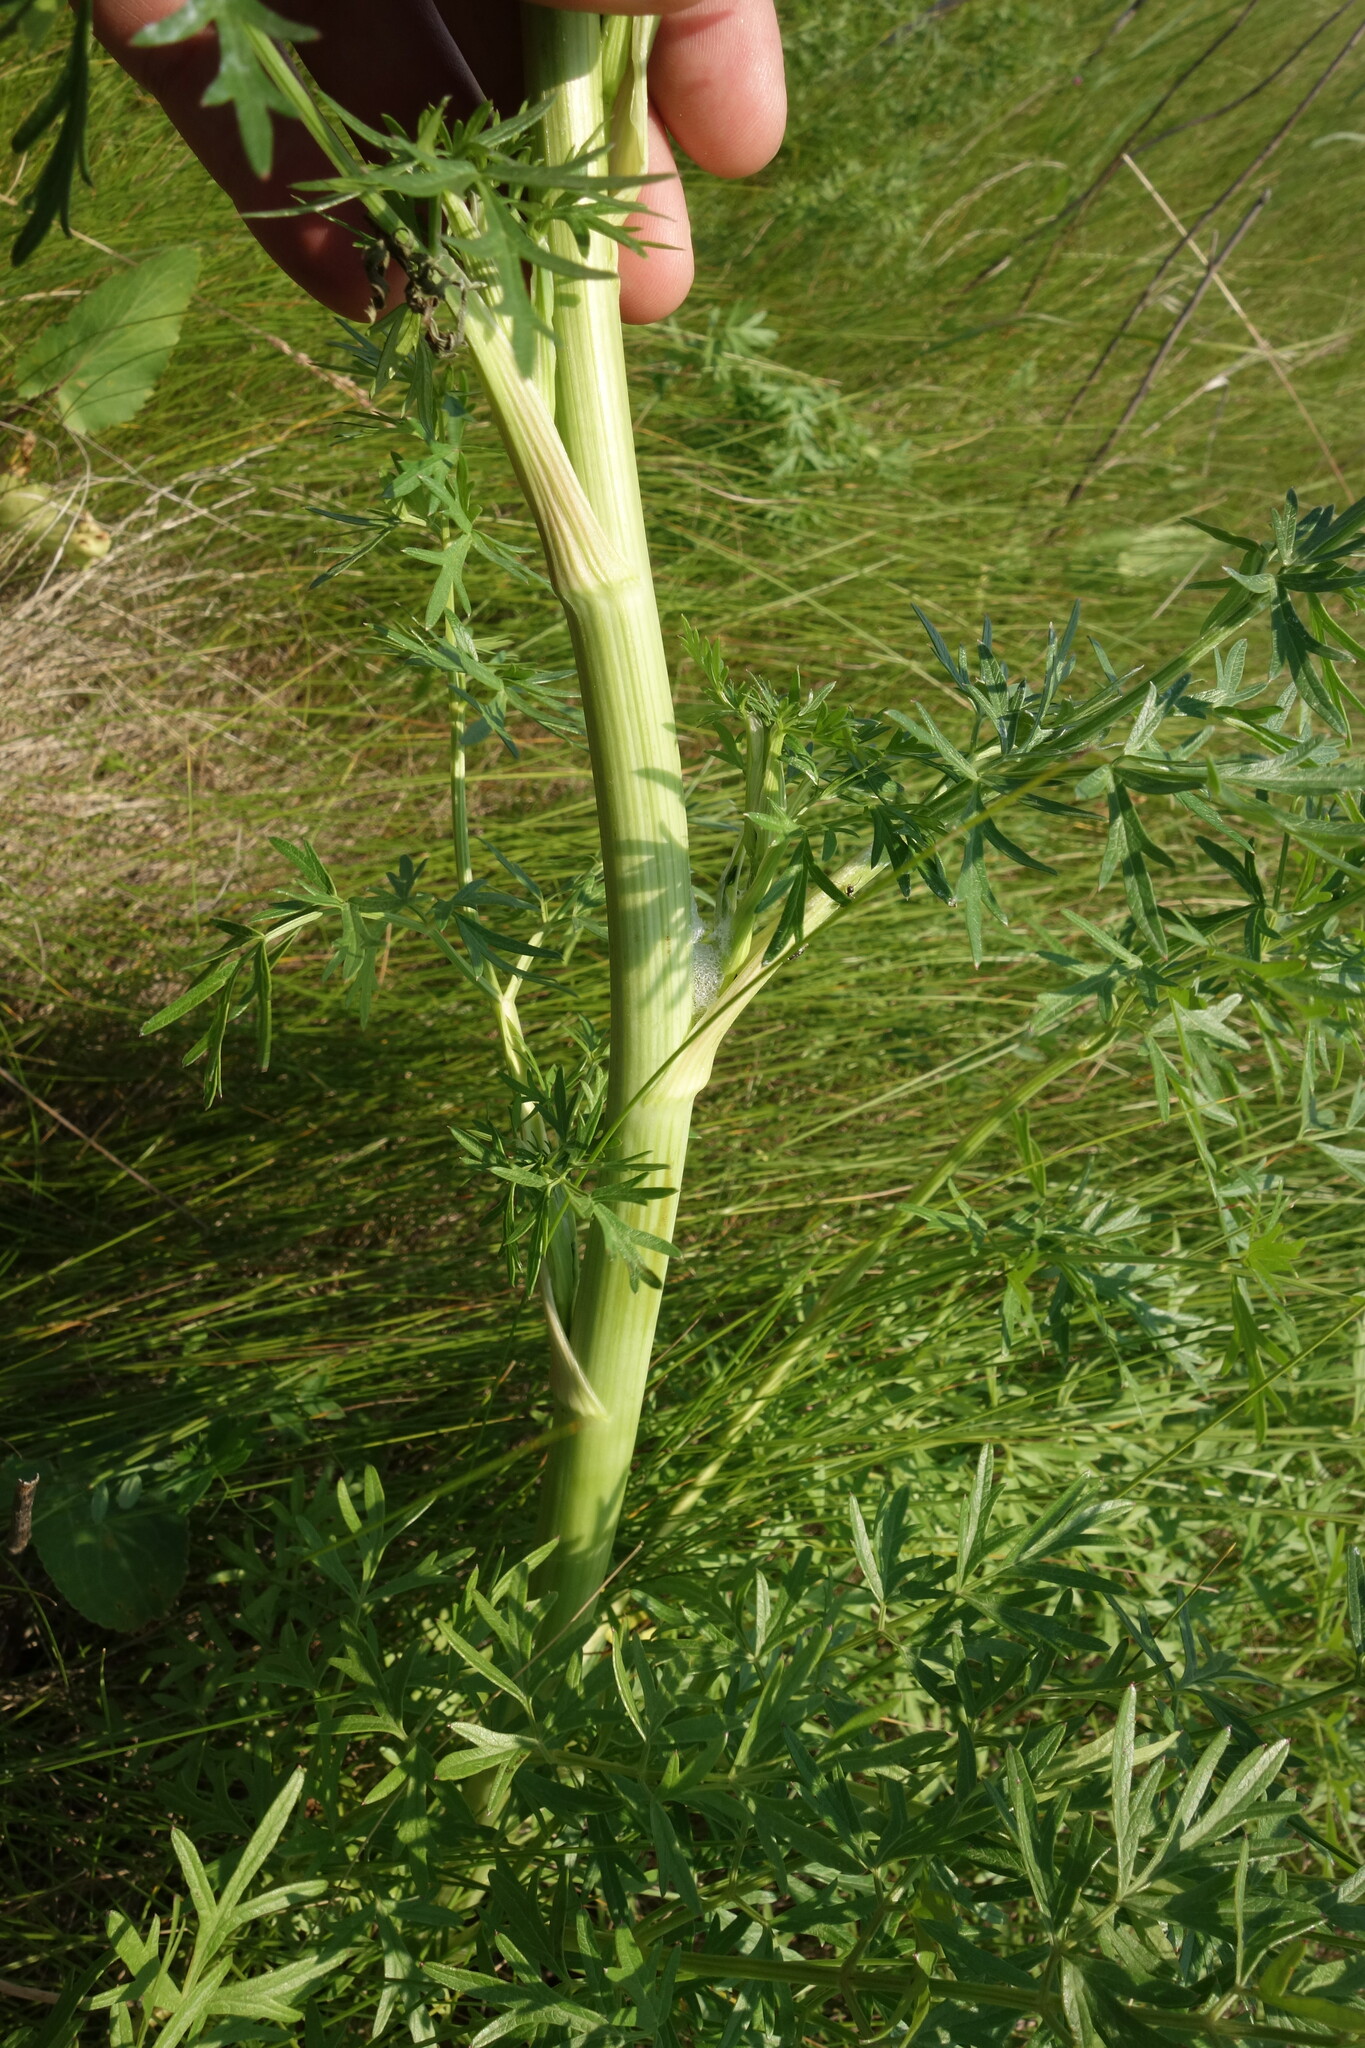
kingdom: Plantae
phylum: Tracheophyta
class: Magnoliopsida
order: Apiales
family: Apiaceae
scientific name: Apiaceae
